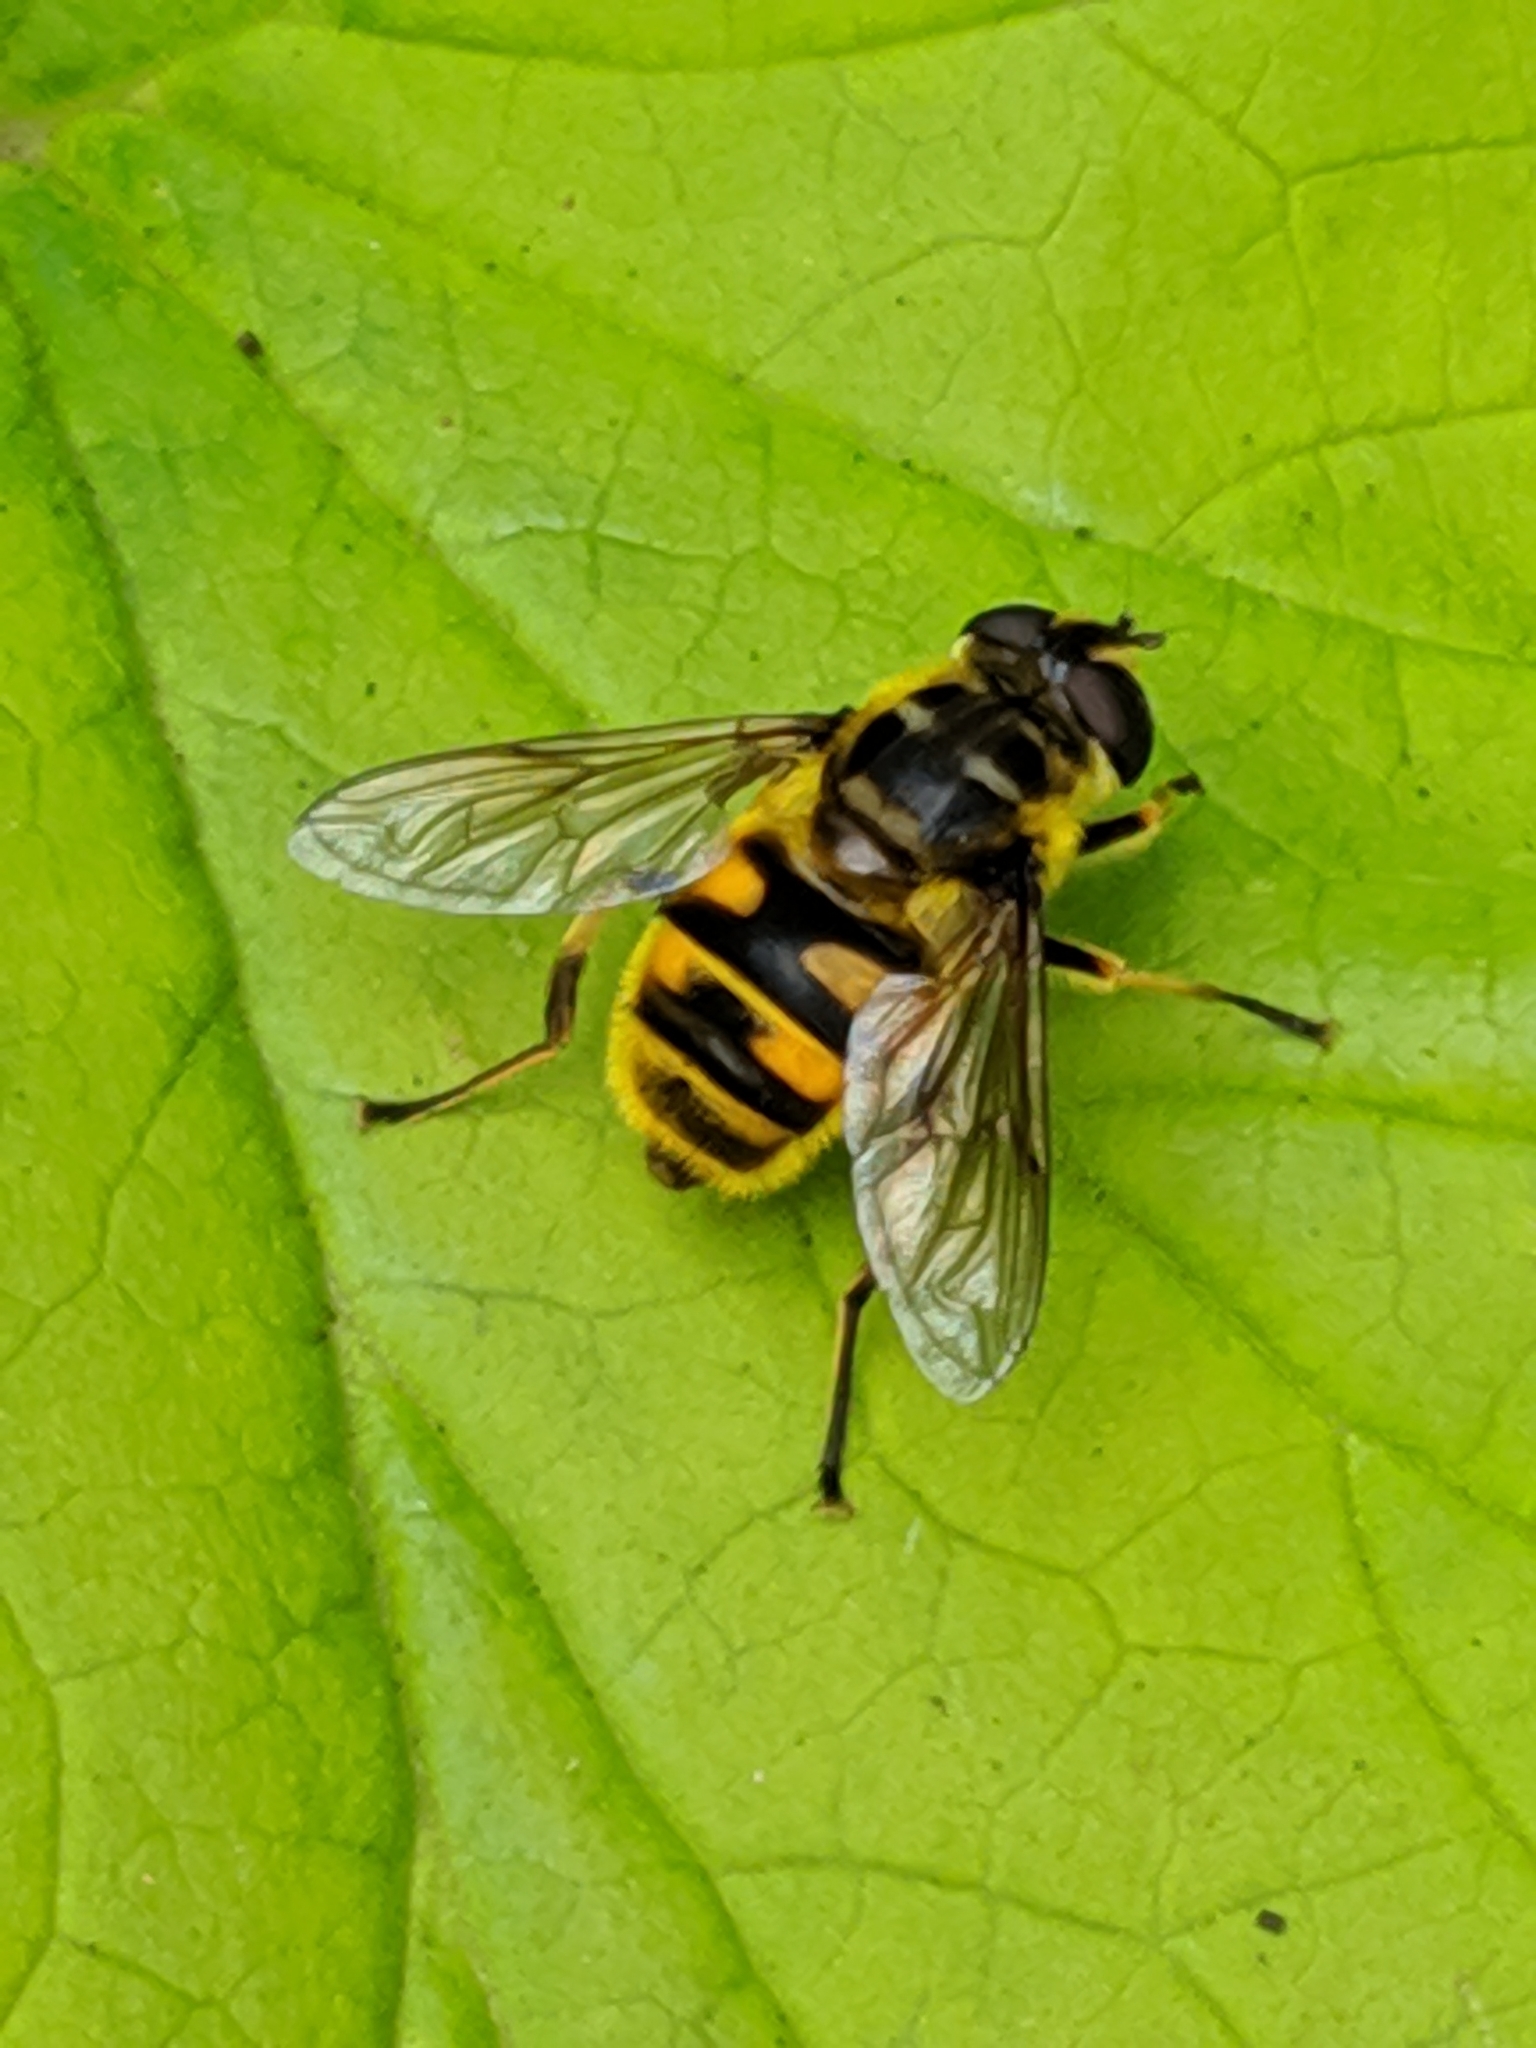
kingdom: Animalia
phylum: Arthropoda
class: Insecta
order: Diptera
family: Syrphidae
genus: Myathropa
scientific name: Myathropa florea
